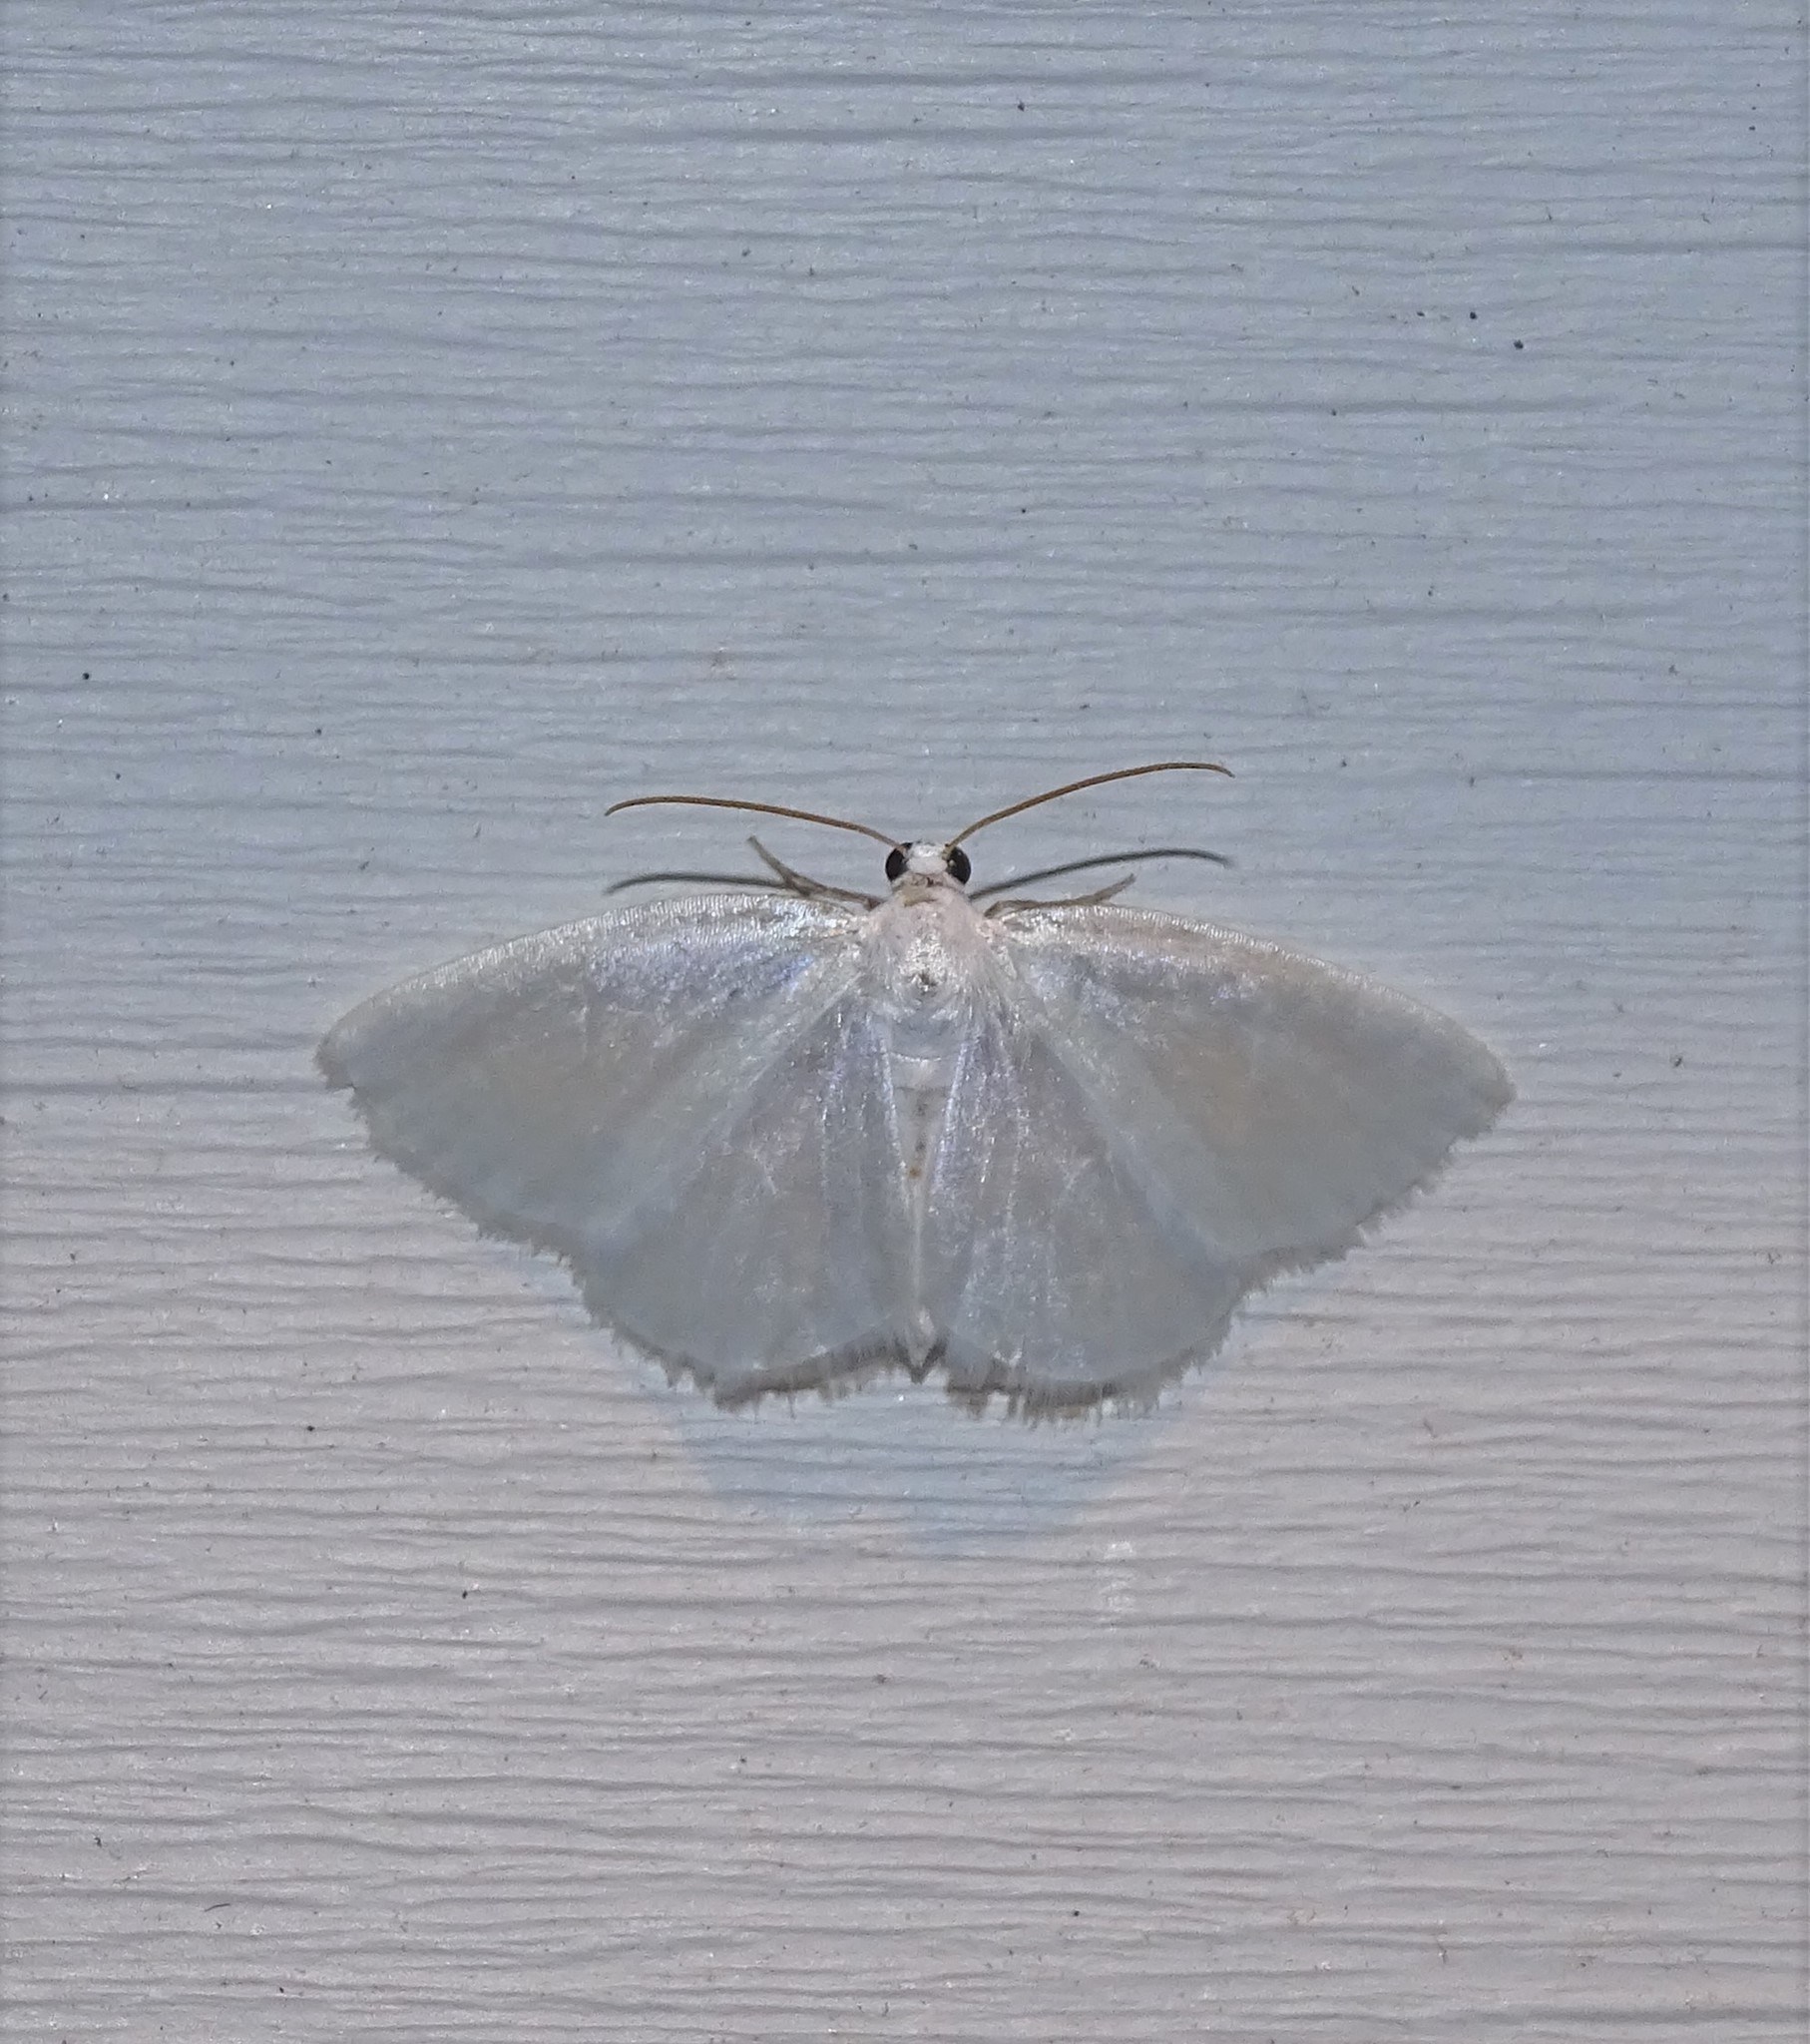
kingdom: Animalia
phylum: Arthropoda
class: Insecta
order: Lepidoptera
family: Geometridae
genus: Lomographa
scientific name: Lomographa vestaliata
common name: White spring moth
